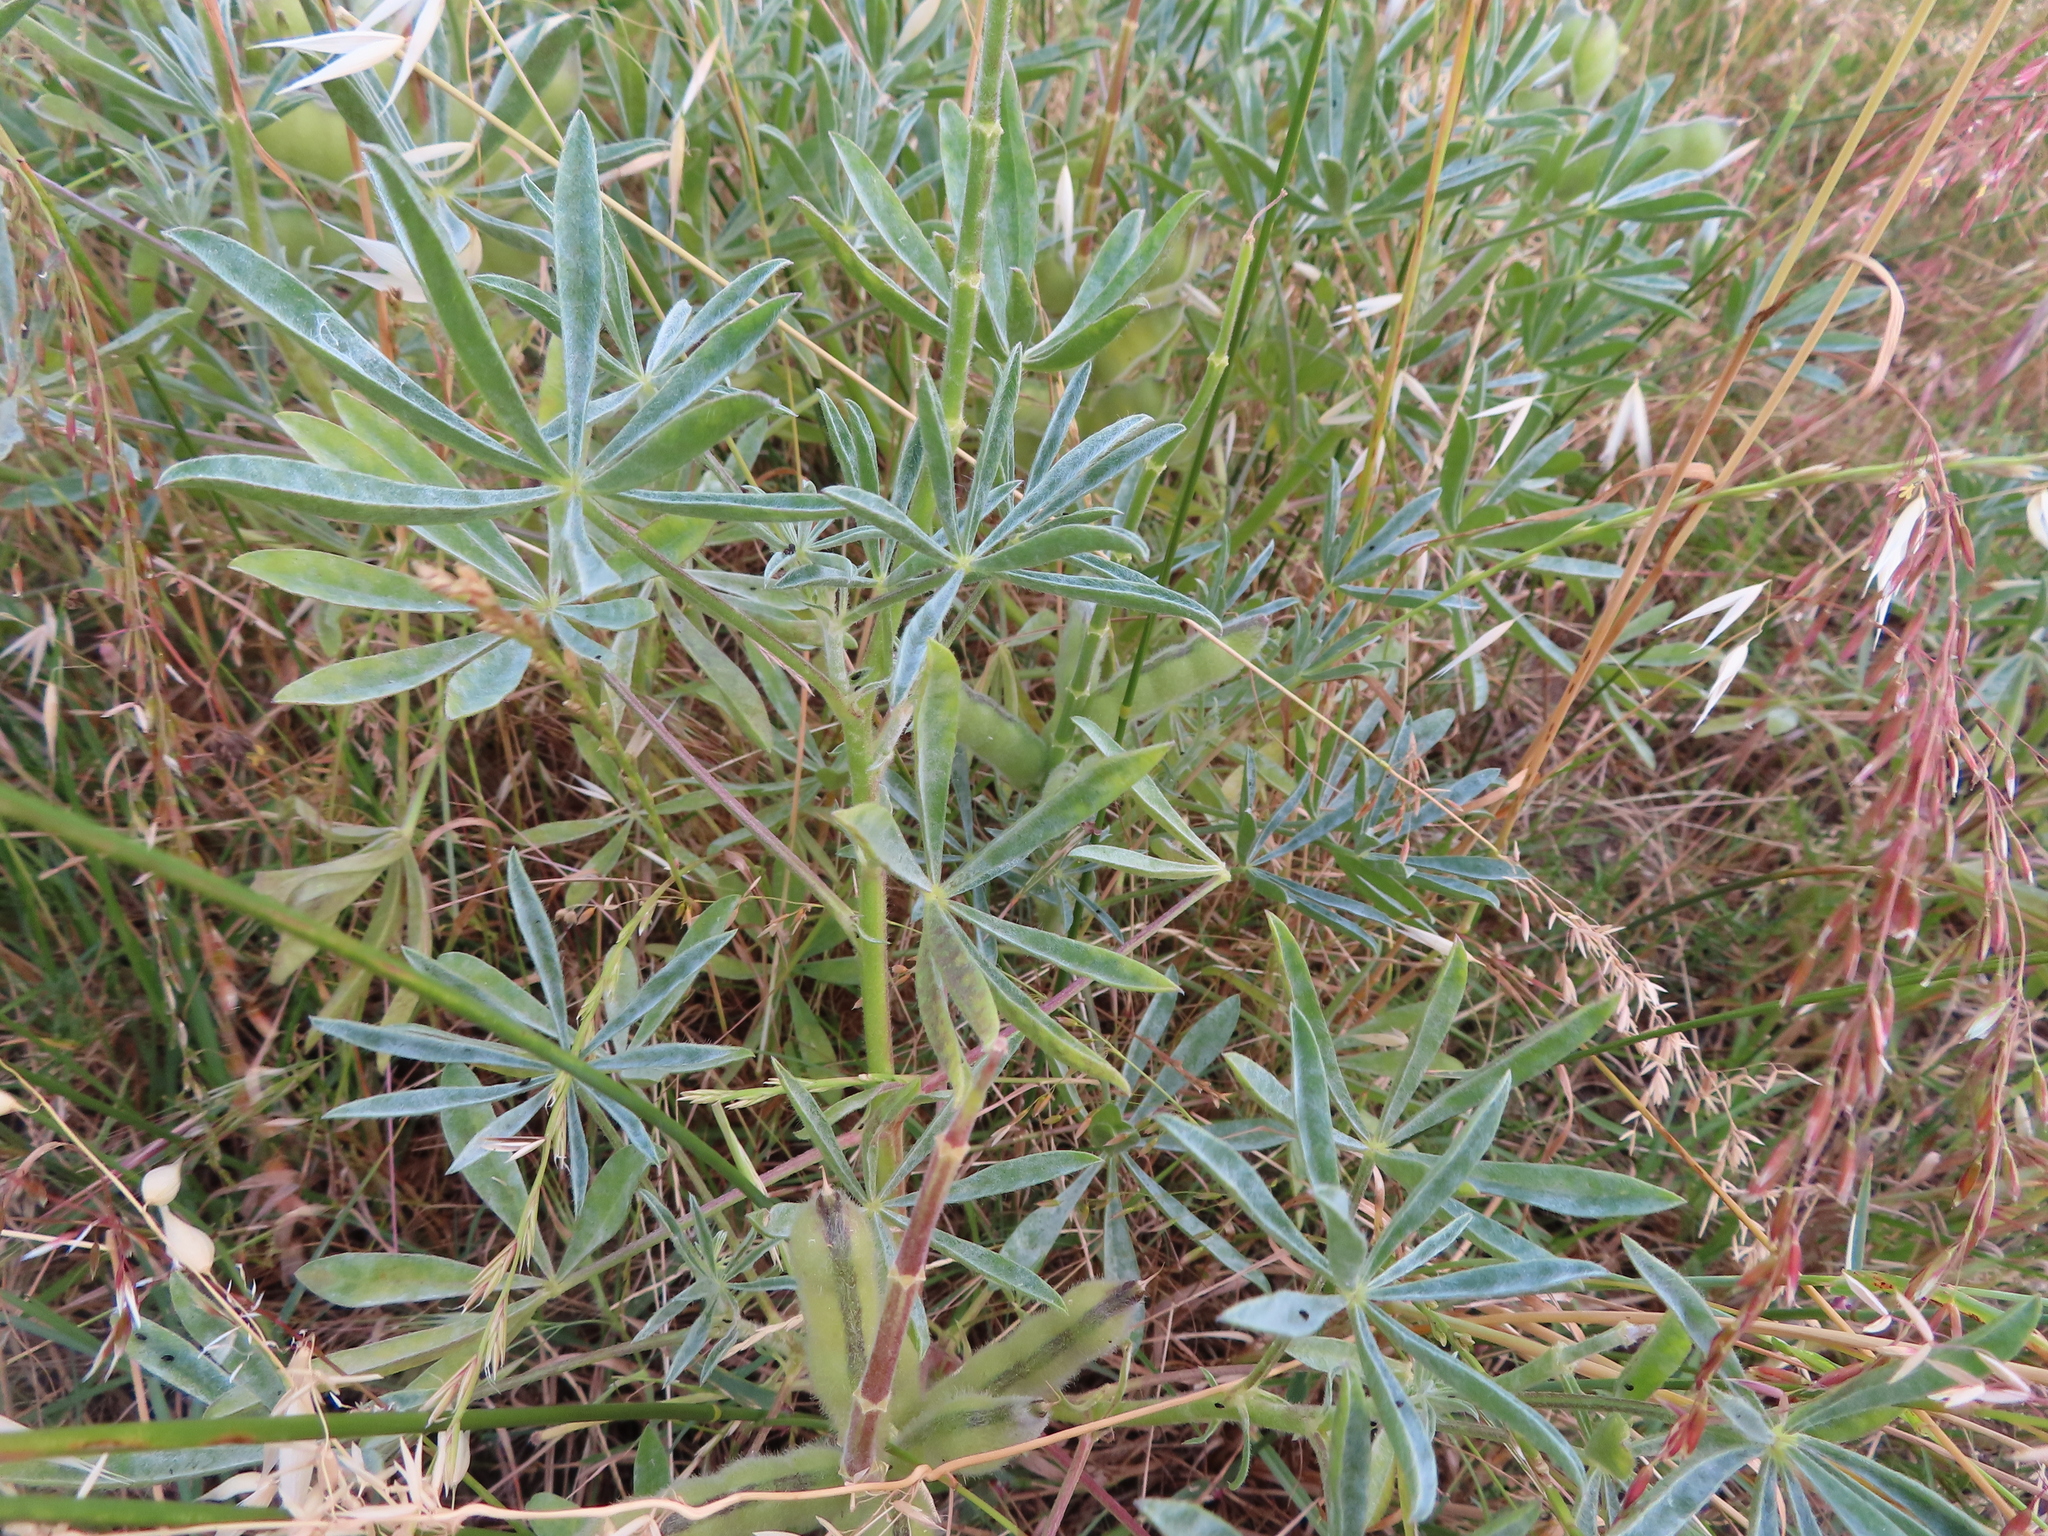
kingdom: Plantae
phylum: Tracheophyta
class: Magnoliopsida
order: Fabales
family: Fabaceae
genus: Lupinus
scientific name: Lupinus luteus
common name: European yellow lupine
